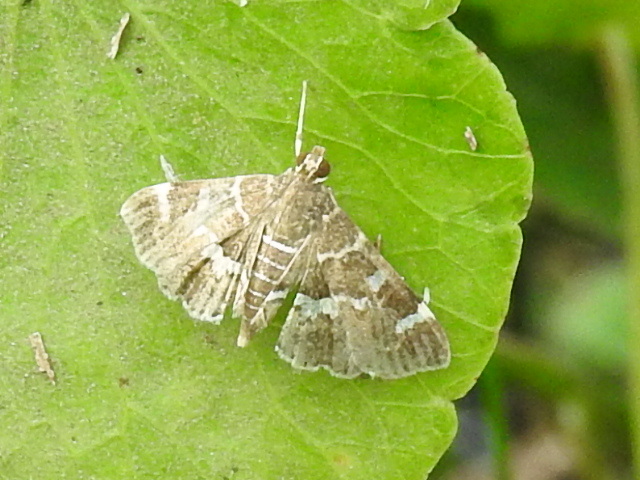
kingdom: Animalia
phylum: Arthropoda
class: Insecta
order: Lepidoptera
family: Crambidae
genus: Hymenia
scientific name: Hymenia perspectalis
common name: Spotted beet webworm
